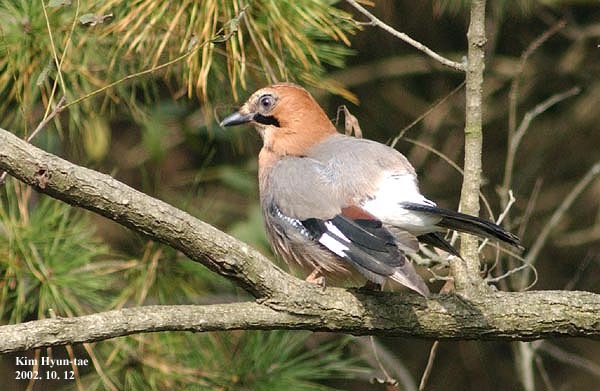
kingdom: Animalia
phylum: Chordata
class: Aves
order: Passeriformes
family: Corvidae
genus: Garrulus
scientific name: Garrulus glandarius
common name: Eurasian jay
